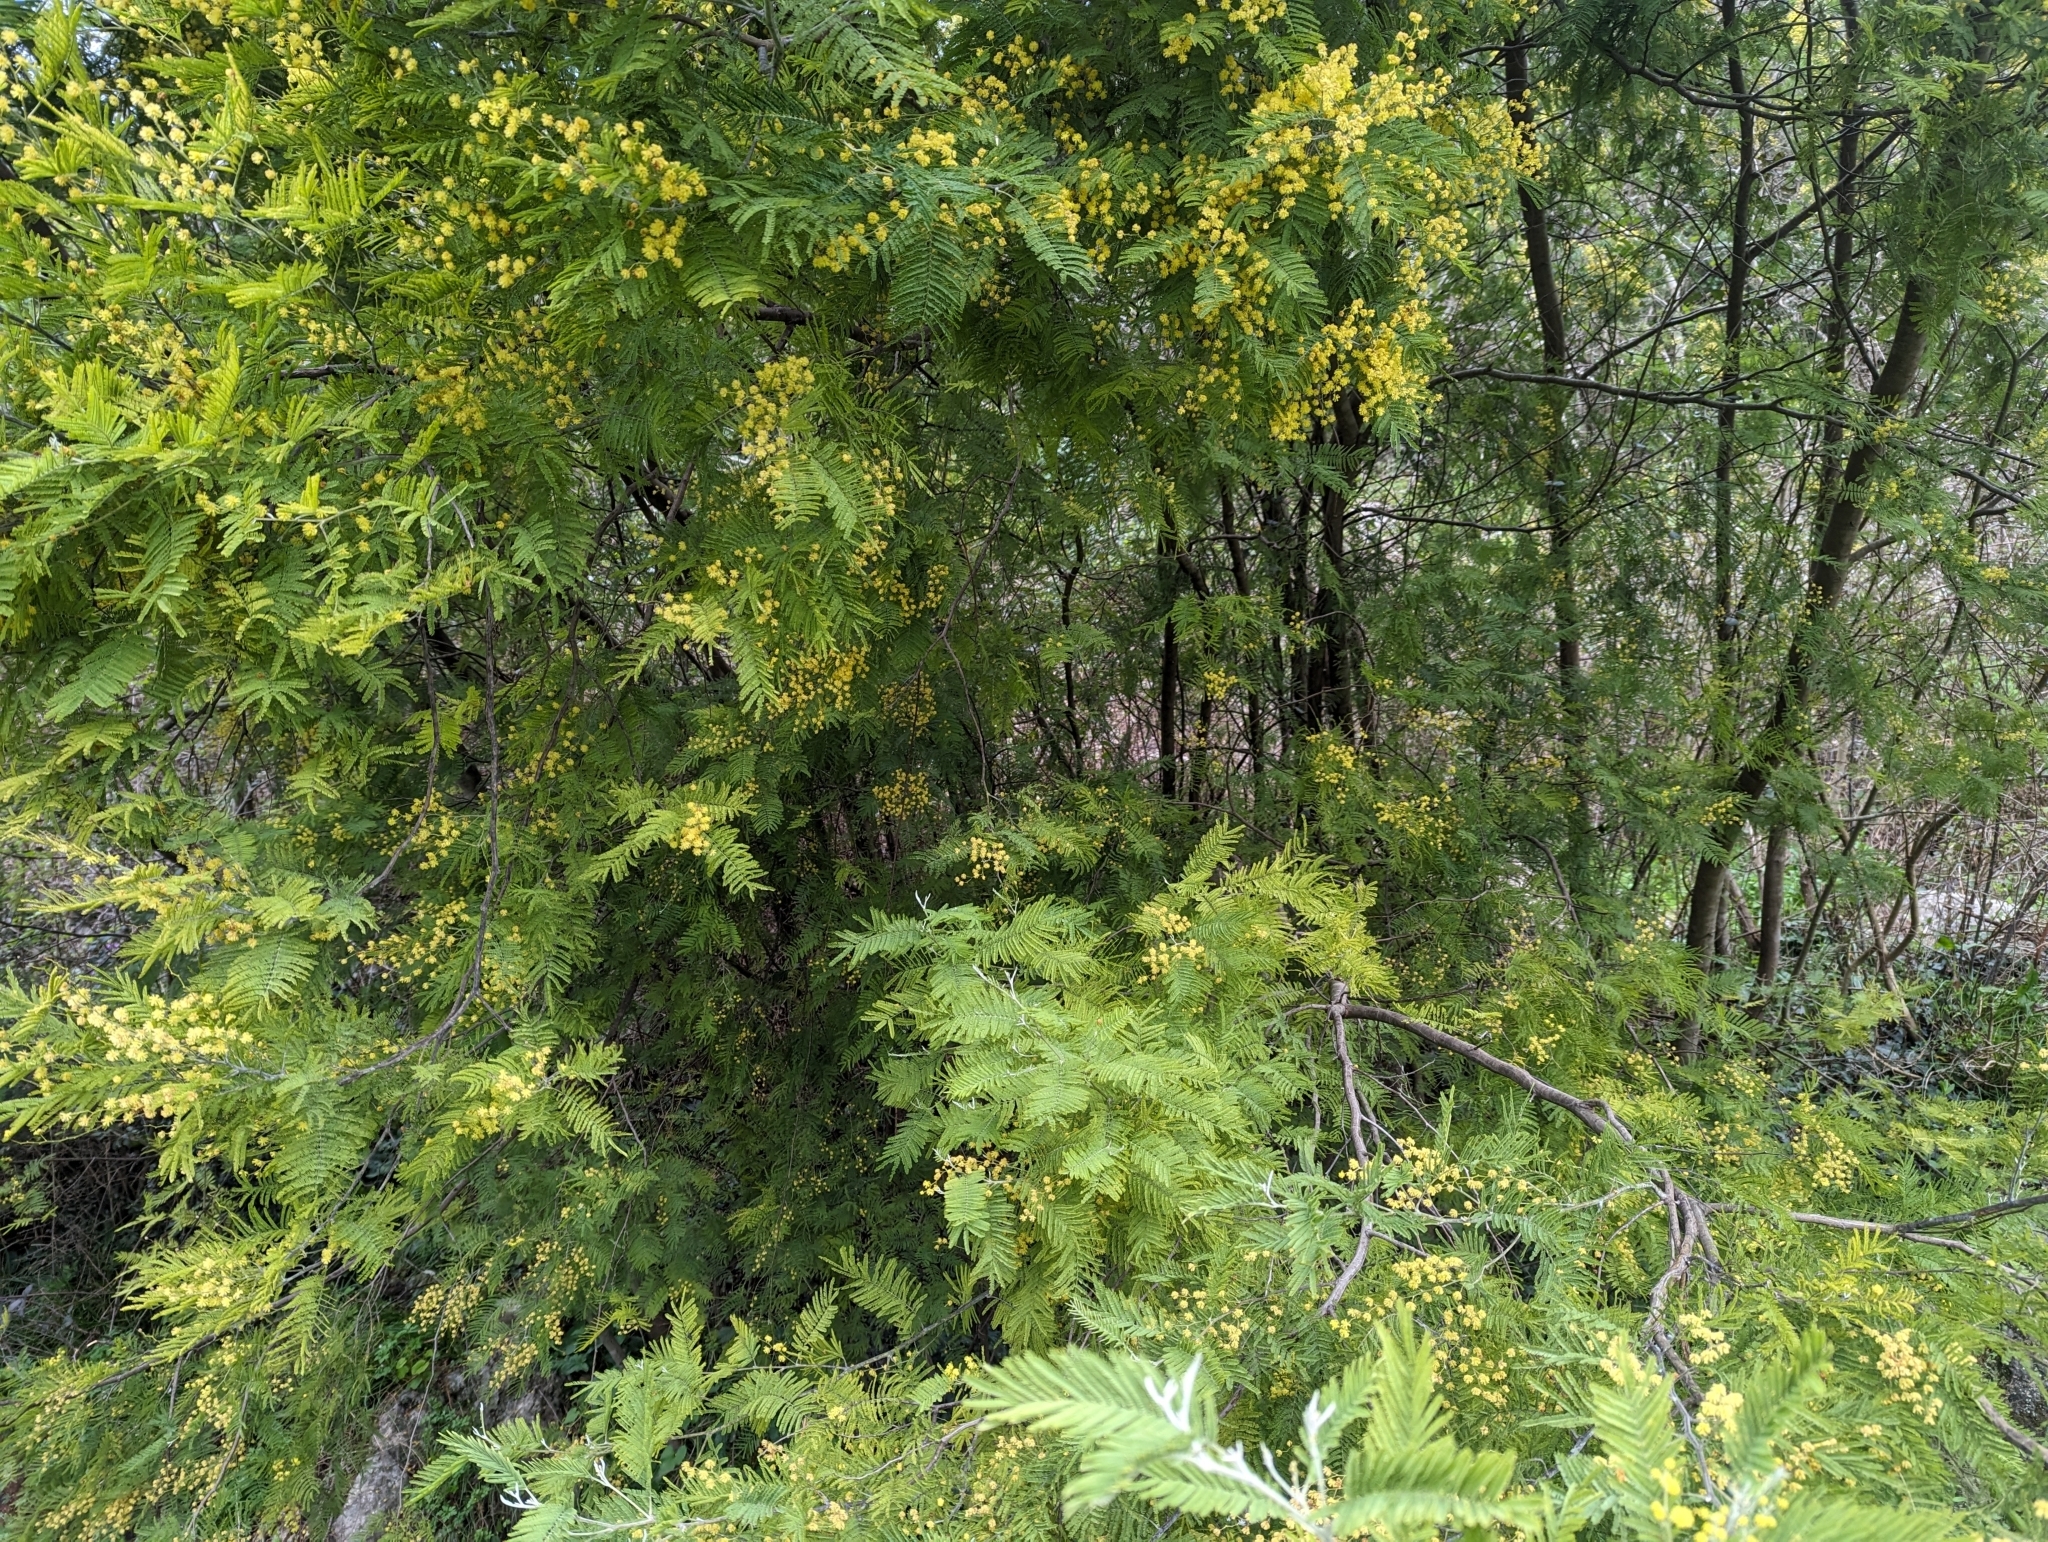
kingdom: Plantae
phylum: Tracheophyta
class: Magnoliopsida
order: Fabales
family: Fabaceae
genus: Acacia
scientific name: Acacia dealbata
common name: Silver wattle
